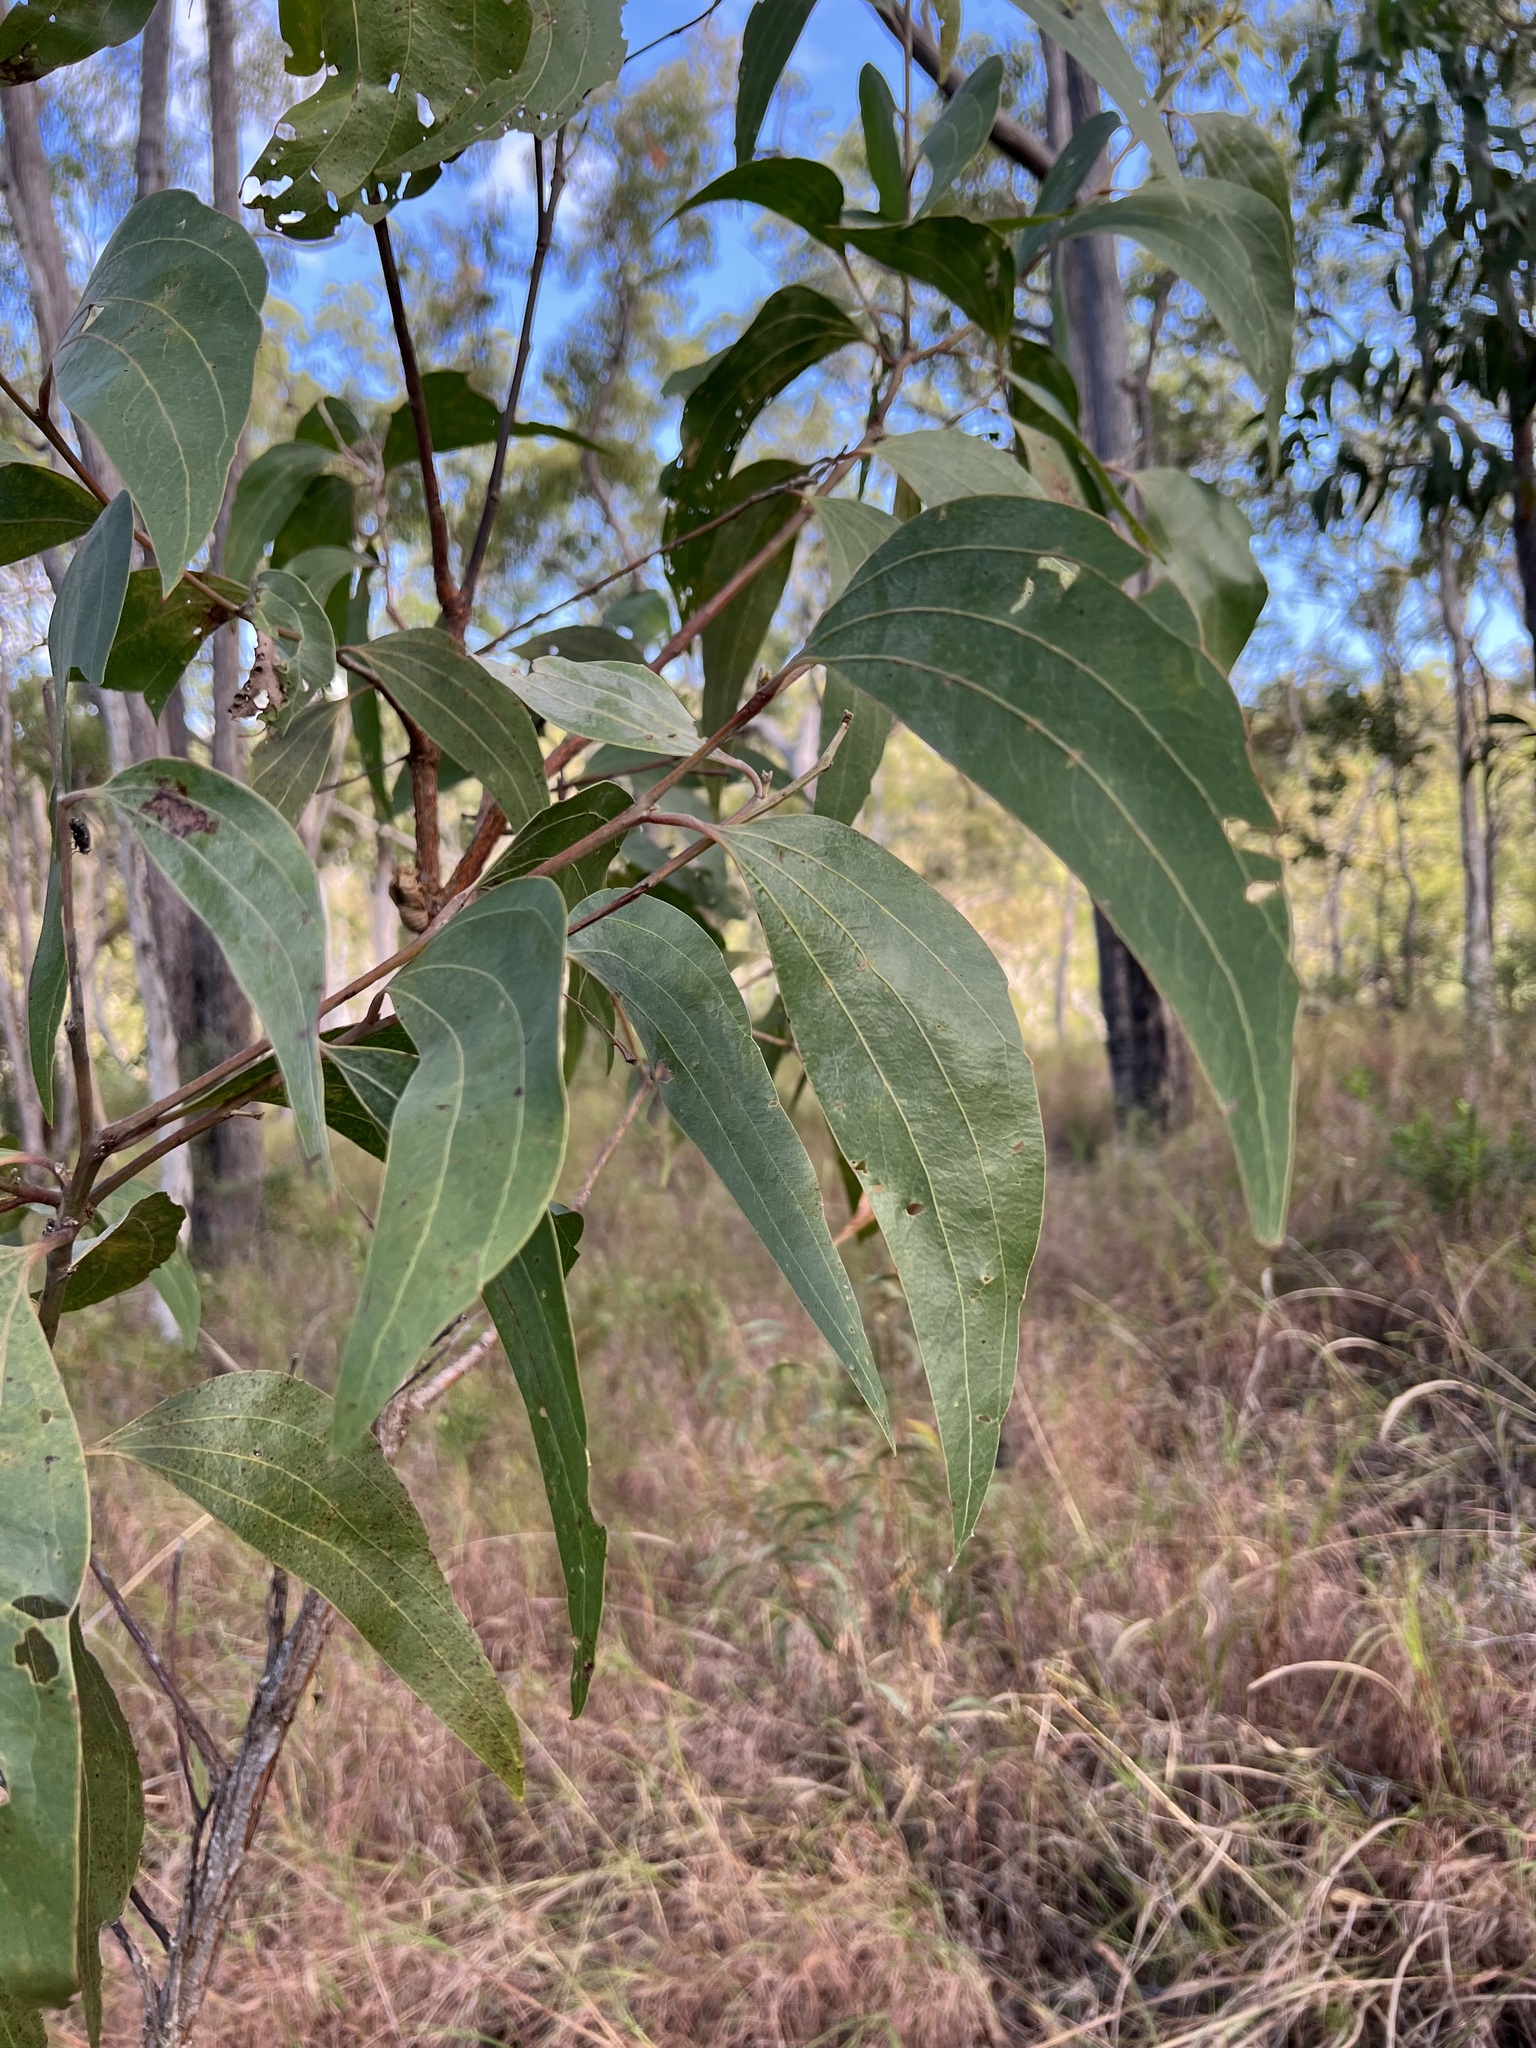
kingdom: Plantae
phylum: Tracheophyta
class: Magnoliopsida
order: Fabales
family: Fabaceae
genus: Acacia
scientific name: Acacia flavescens
